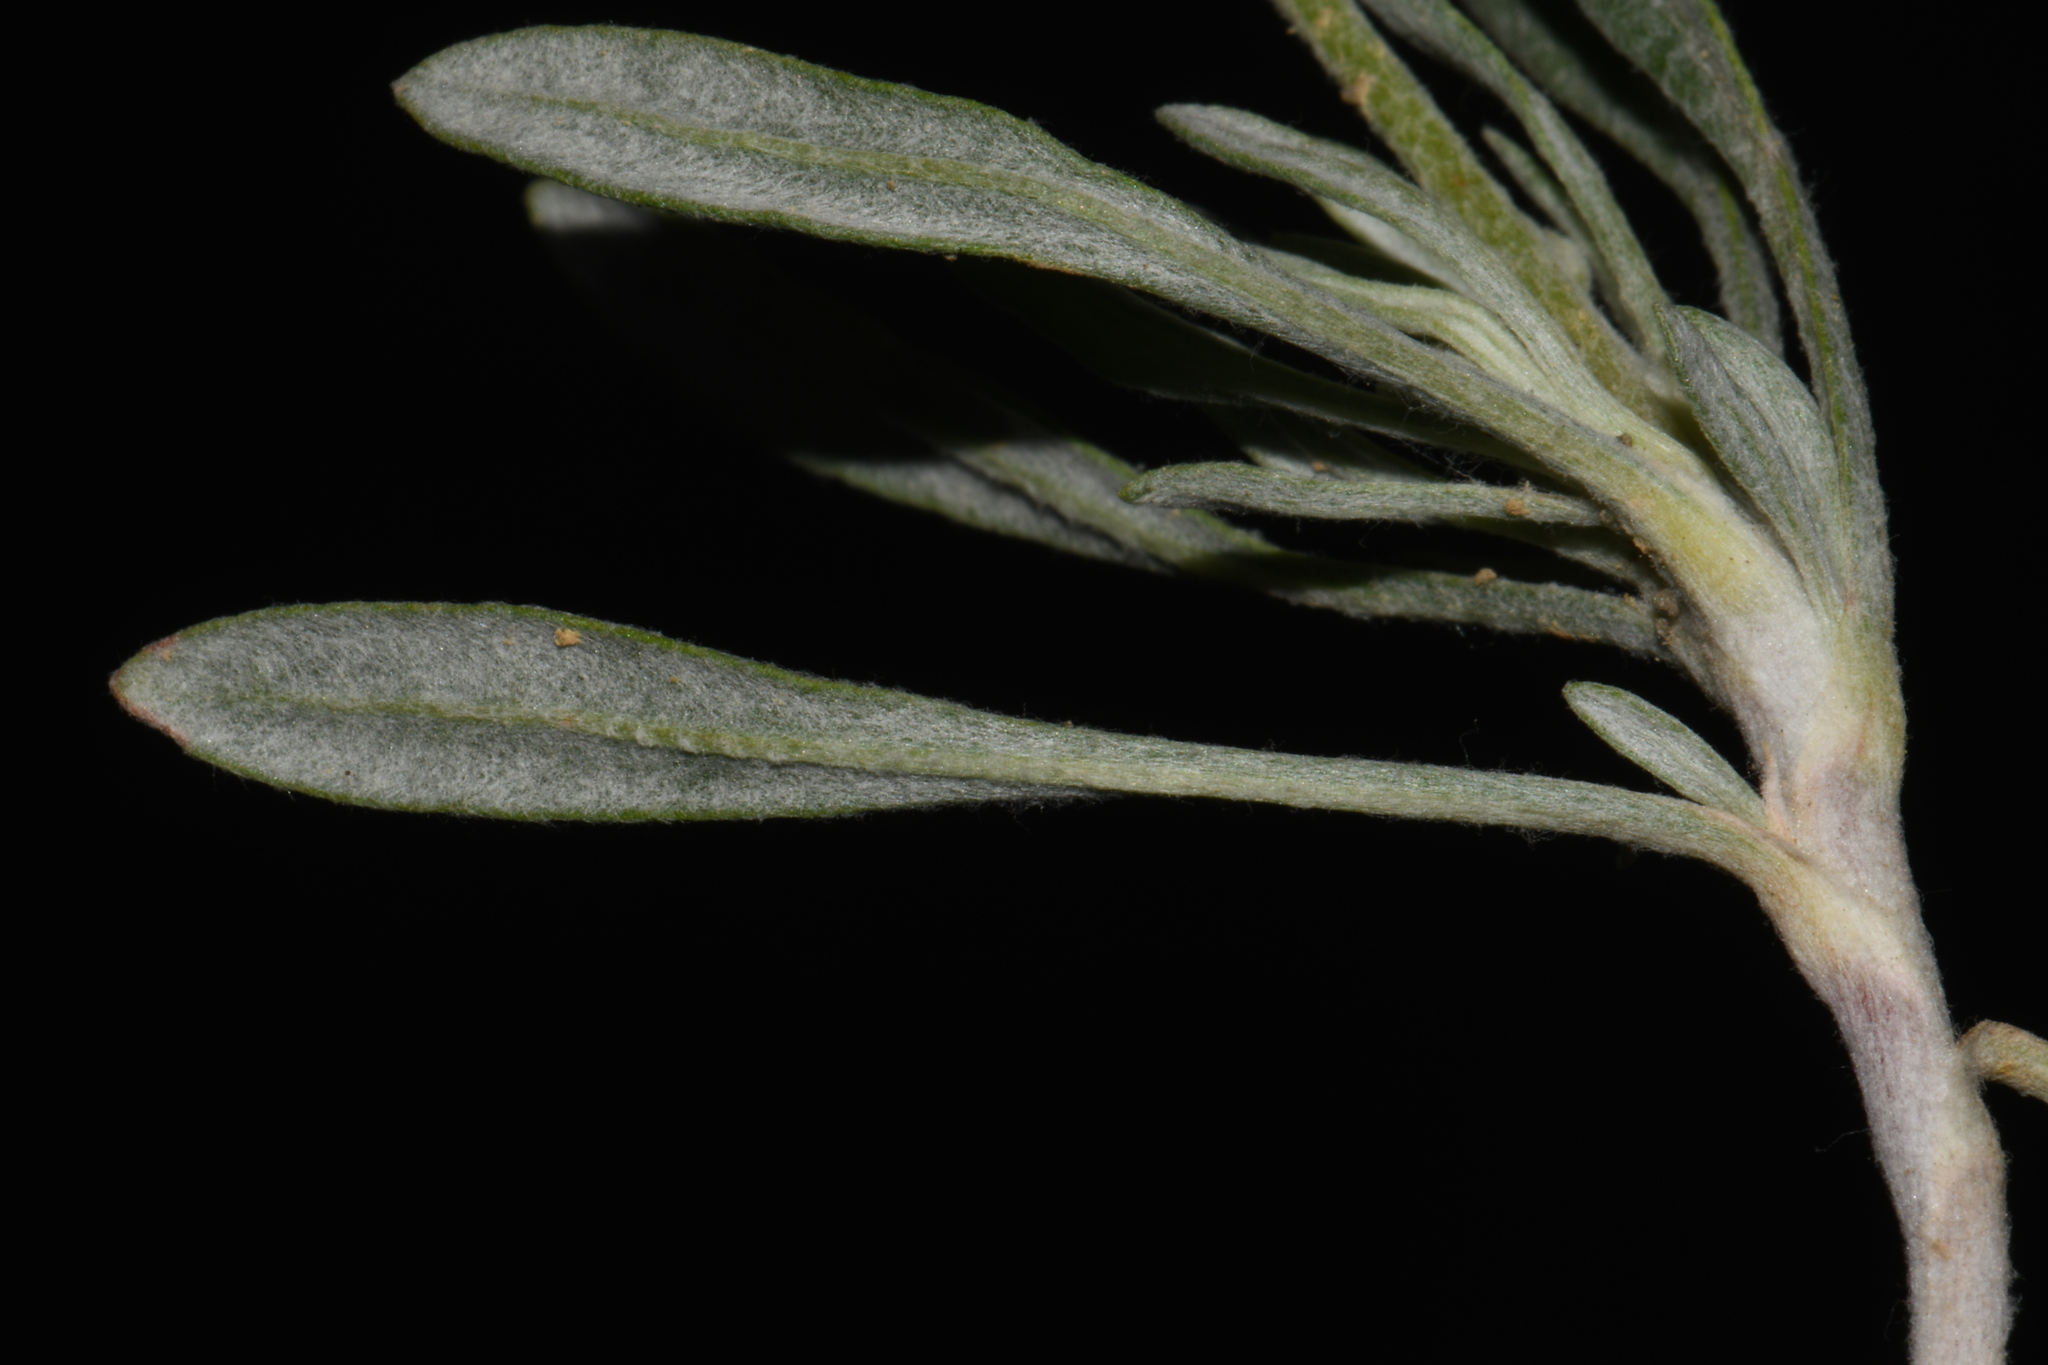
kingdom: Plantae
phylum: Tracheophyta
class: Magnoliopsida
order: Caryophyllales
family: Polygonaceae
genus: Eriogonum
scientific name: Eriogonum pauciflorum
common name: Few-flower wild buckwheat
